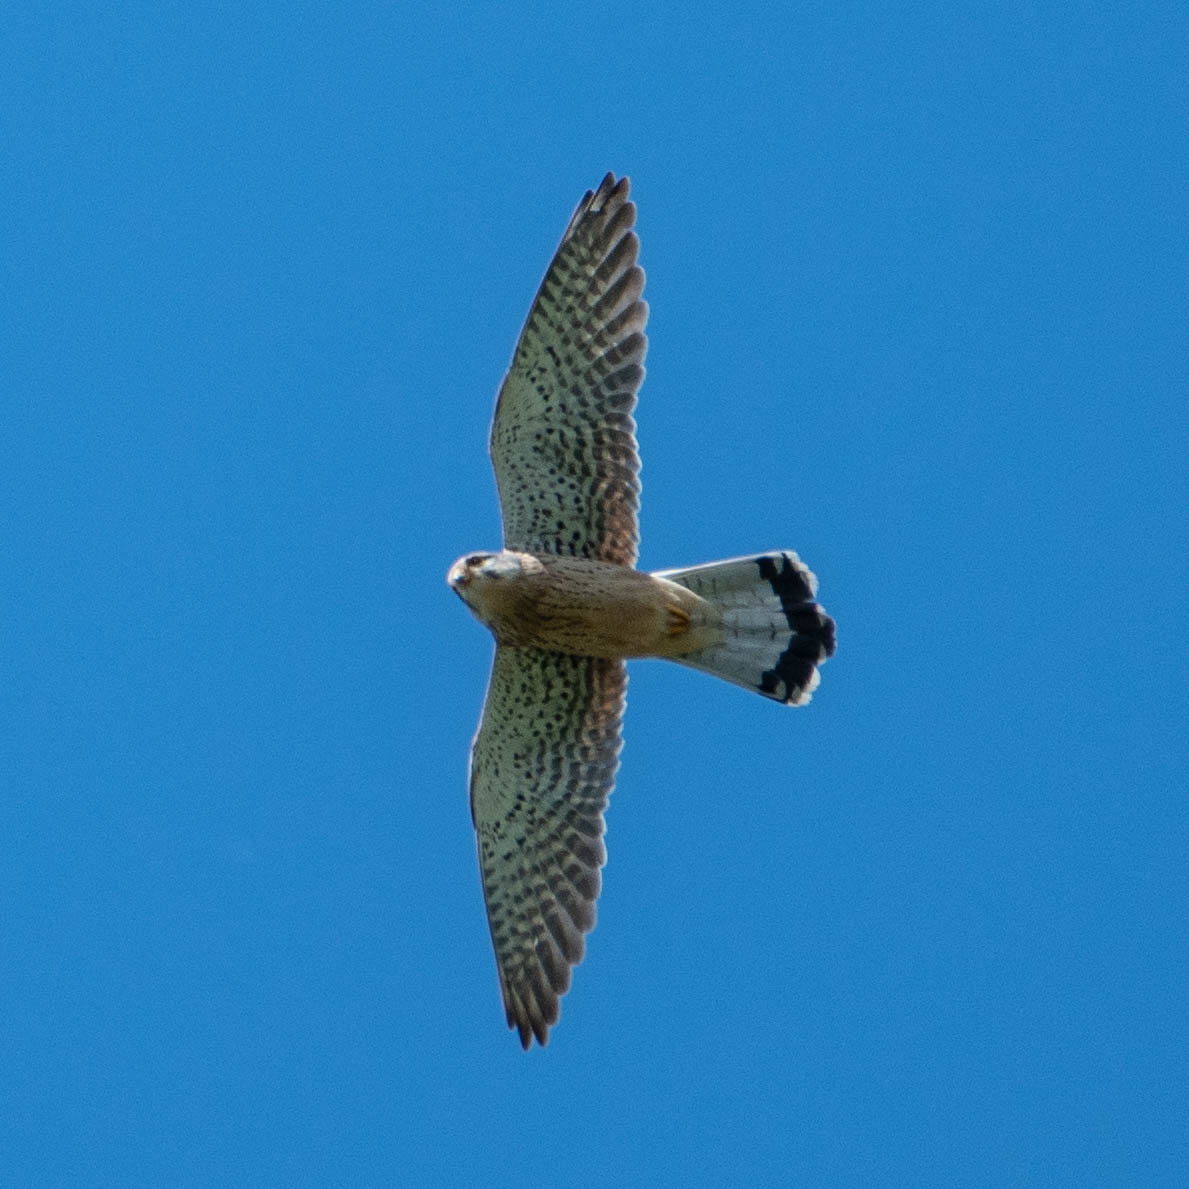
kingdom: Animalia
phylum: Chordata
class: Aves
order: Falconiformes
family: Falconidae
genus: Falco
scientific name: Falco tinnunculus
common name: Common kestrel
